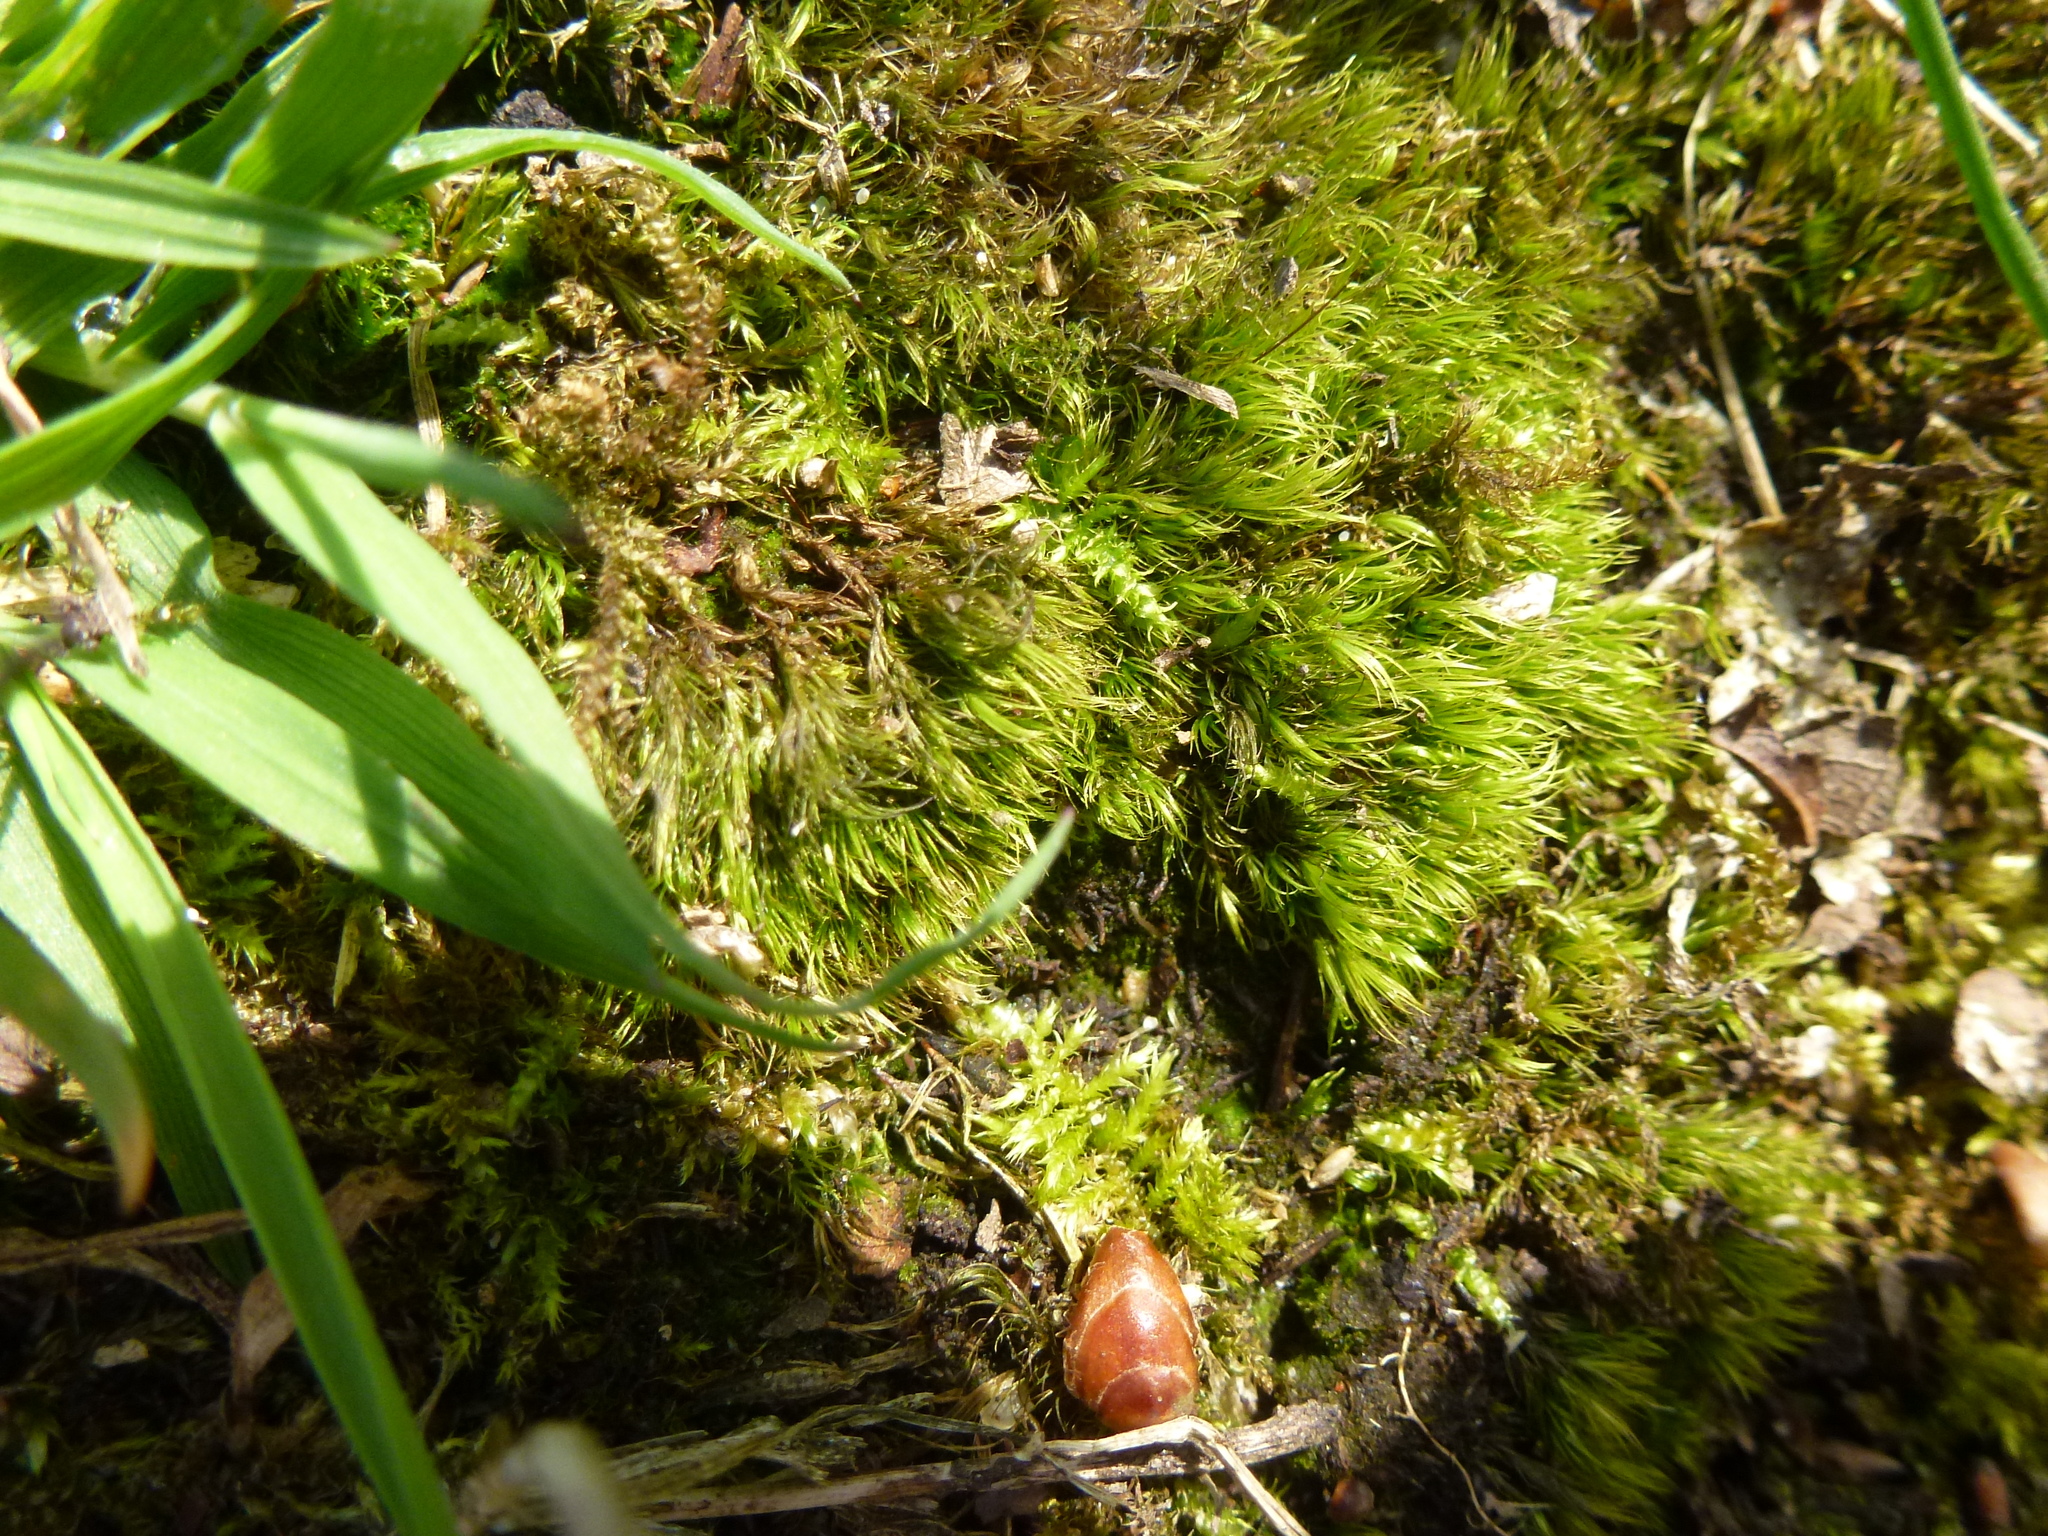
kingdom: Plantae
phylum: Bryophyta
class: Bryopsida
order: Dicranales
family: Dicranellaceae
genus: Dicranella
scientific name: Dicranella heteromalla
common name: Silky forklet moss
